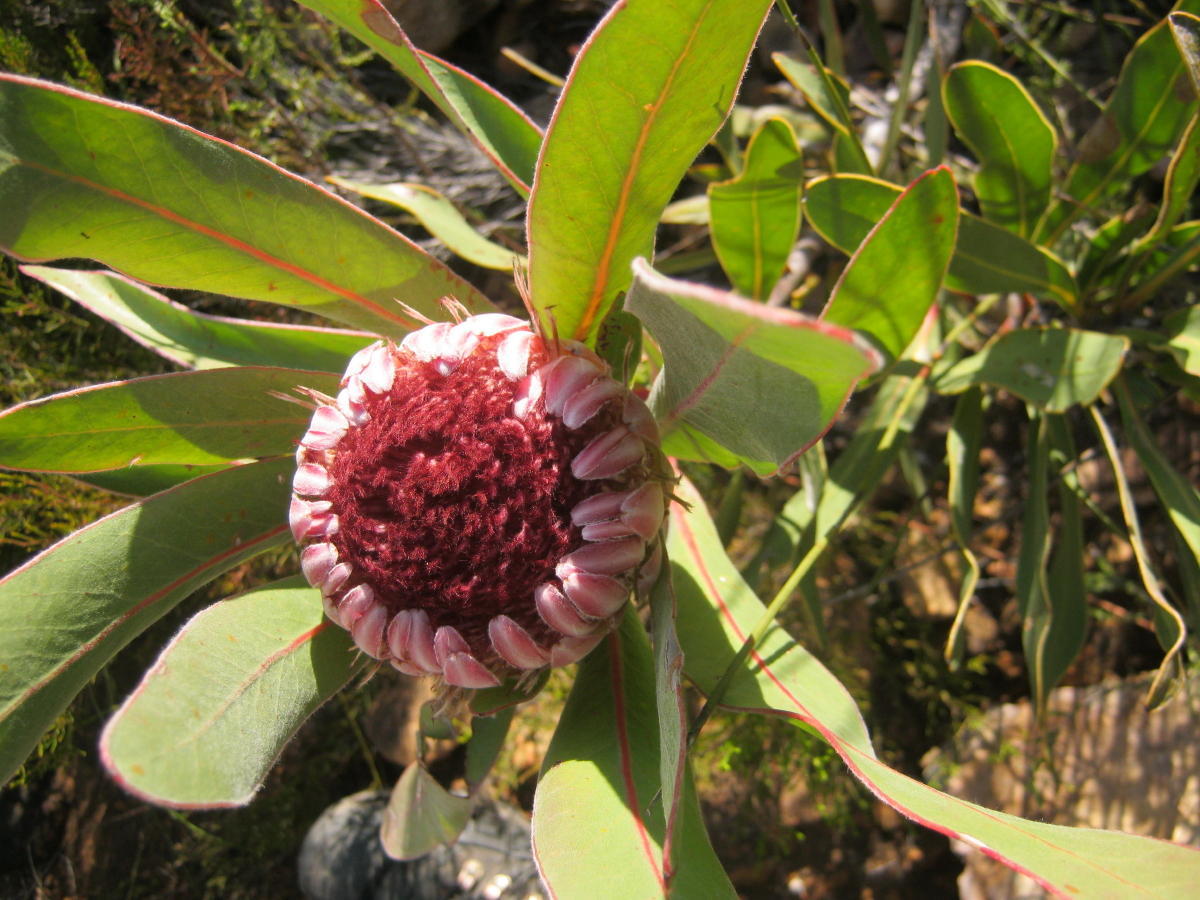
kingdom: Plantae
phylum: Tracheophyta
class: Magnoliopsida
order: Proteales
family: Proteaceae
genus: Protea
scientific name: Protea lorifolia
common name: Strap-leaved protea
